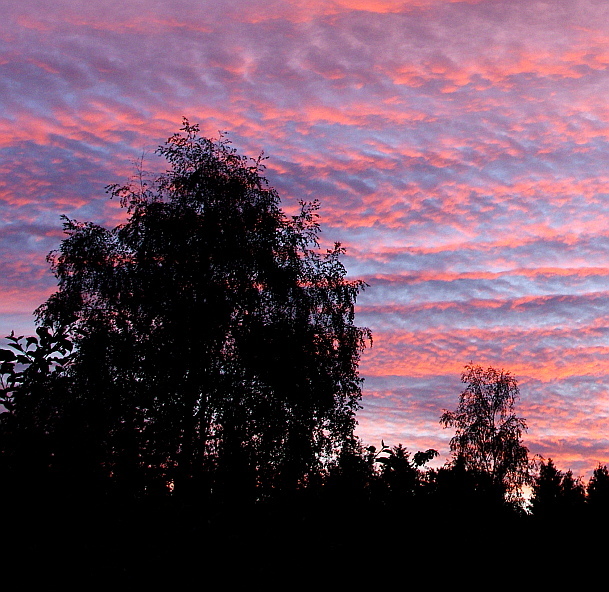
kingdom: Plantae
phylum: Tracheophyta
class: Magnoliopsida
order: Fagales
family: Betulaceae
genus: Betula
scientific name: Betula pendula
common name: Silver birch
